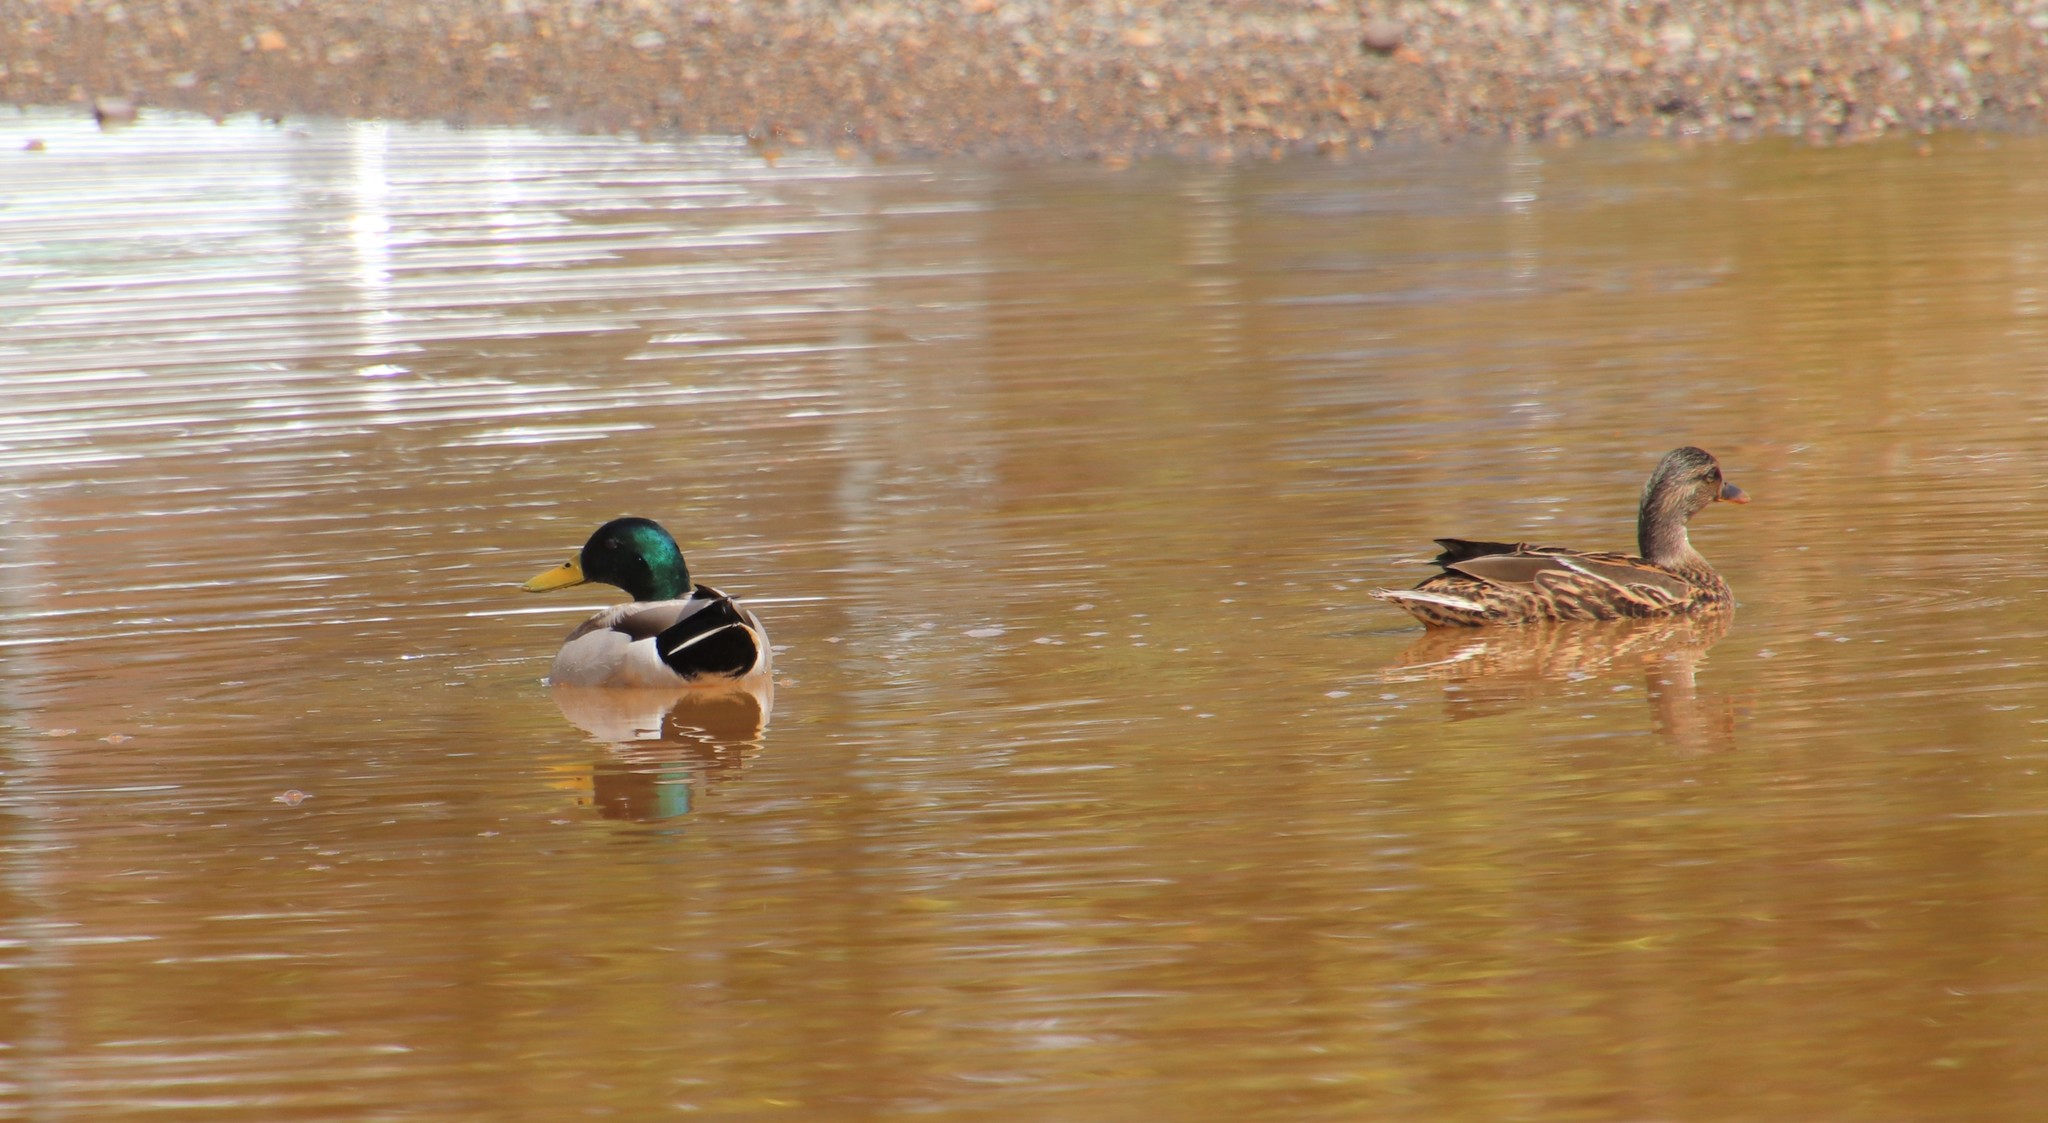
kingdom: Animalia
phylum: Chordata
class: Aves
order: Anseriformes
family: Anatidae
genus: Anas
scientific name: Anas platyrhynchos
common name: Mallard
